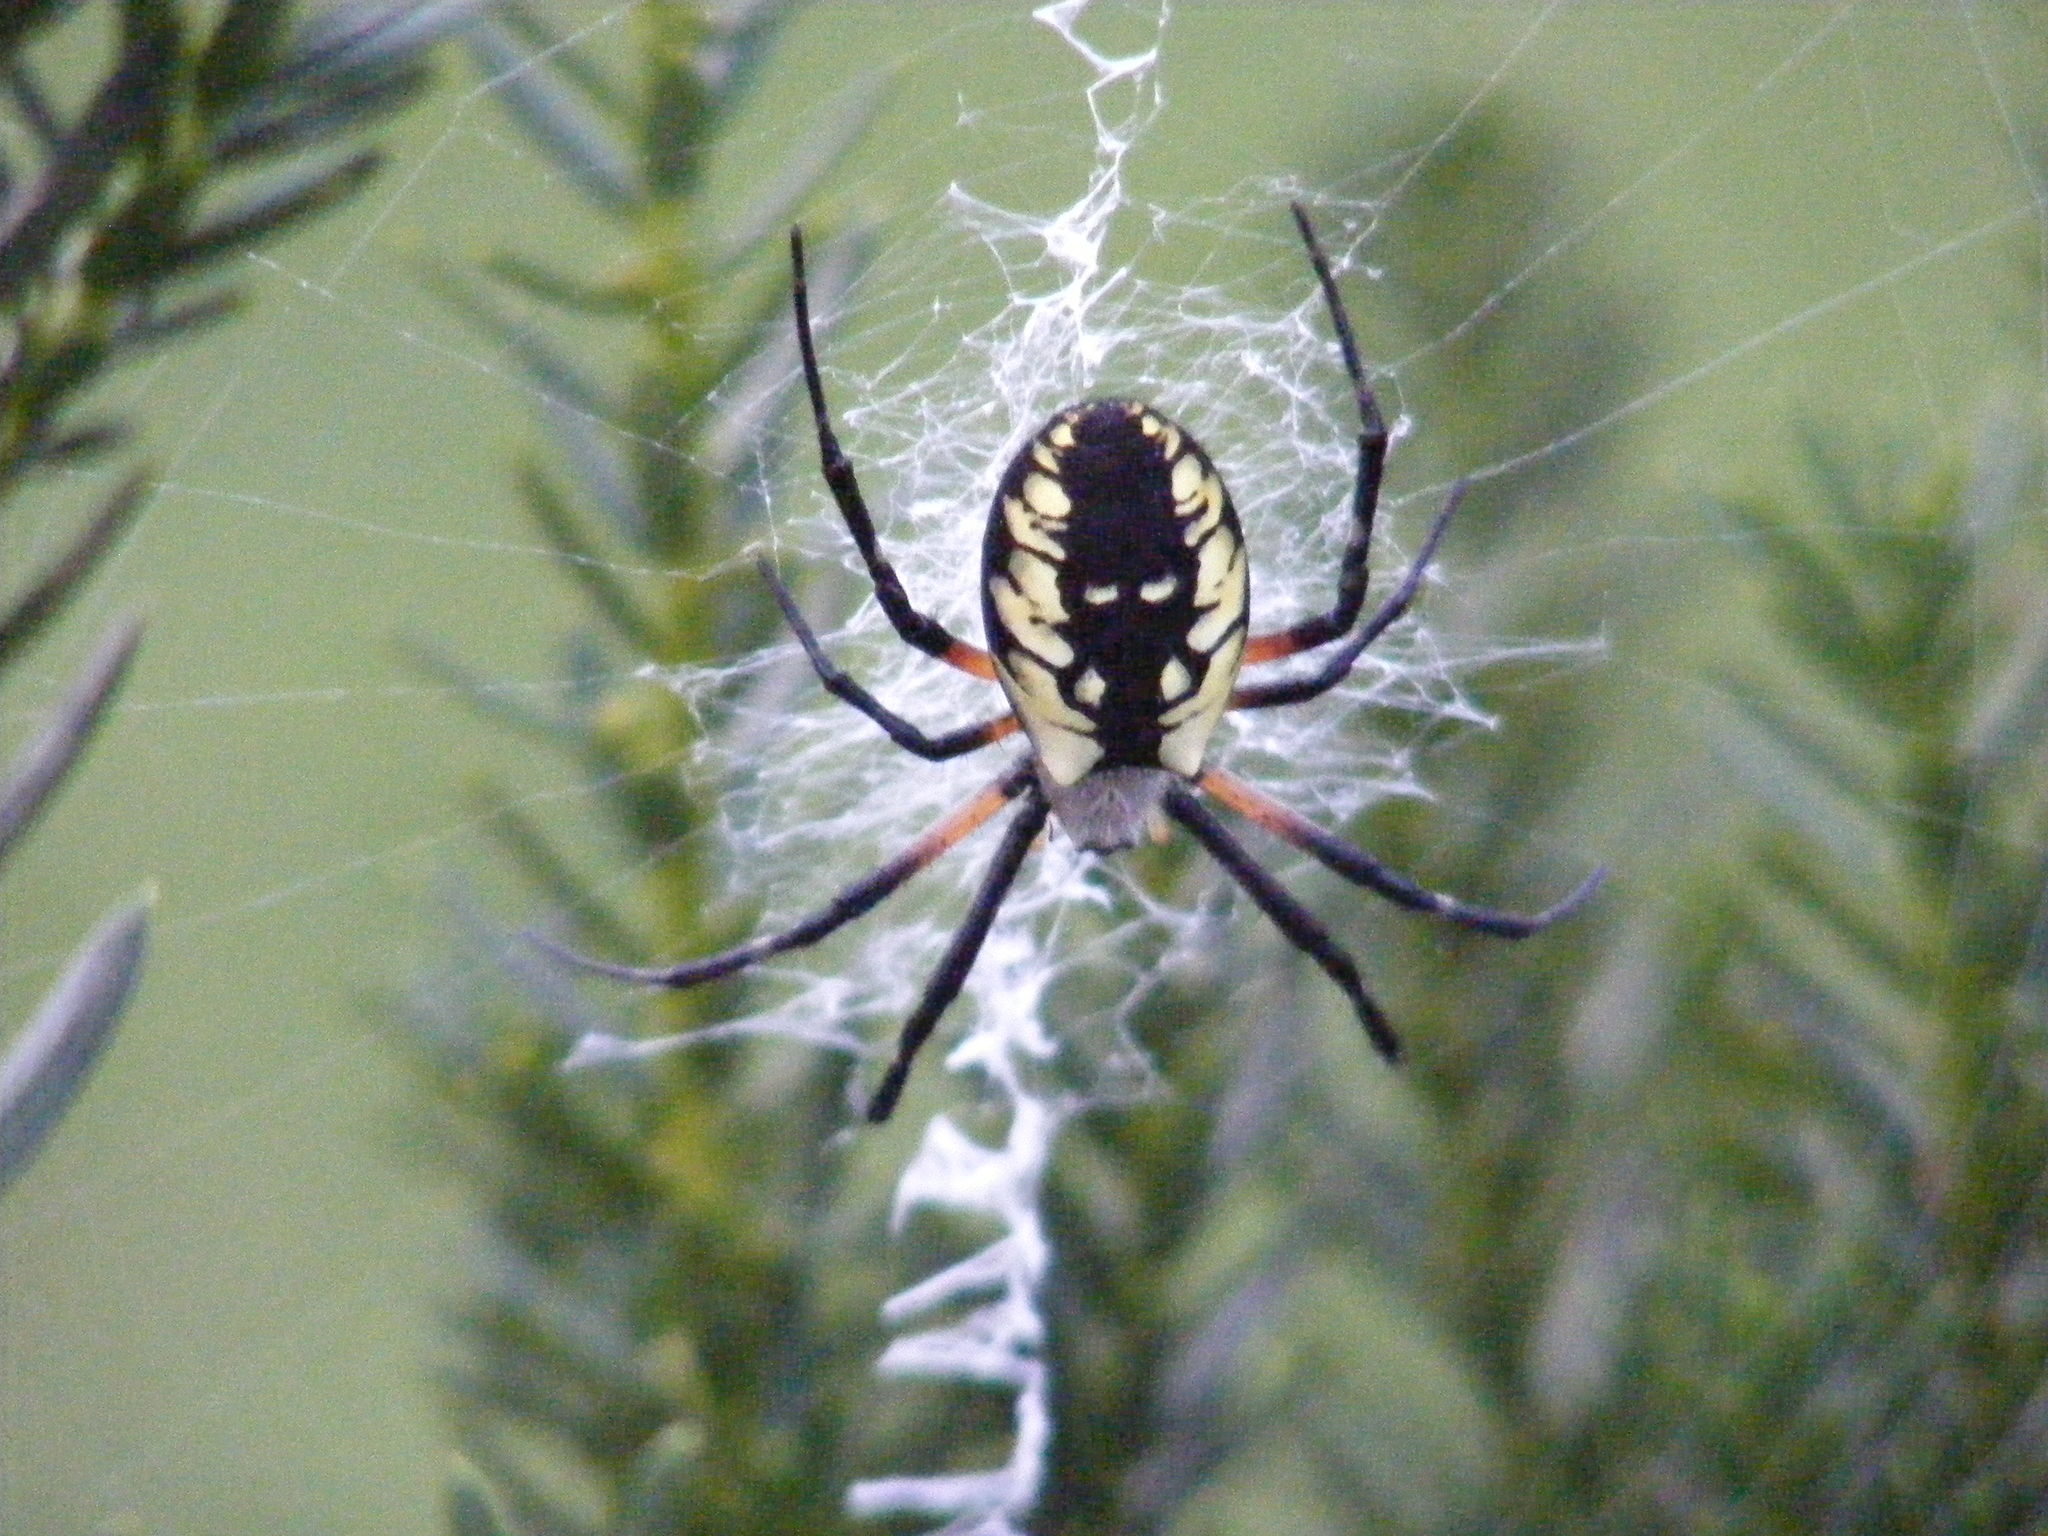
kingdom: Animalia
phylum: Arthropoda
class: Arachnida
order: Araneae
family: Araneidae
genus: Argiope
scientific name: Argiope aurantia
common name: Orb weavers
